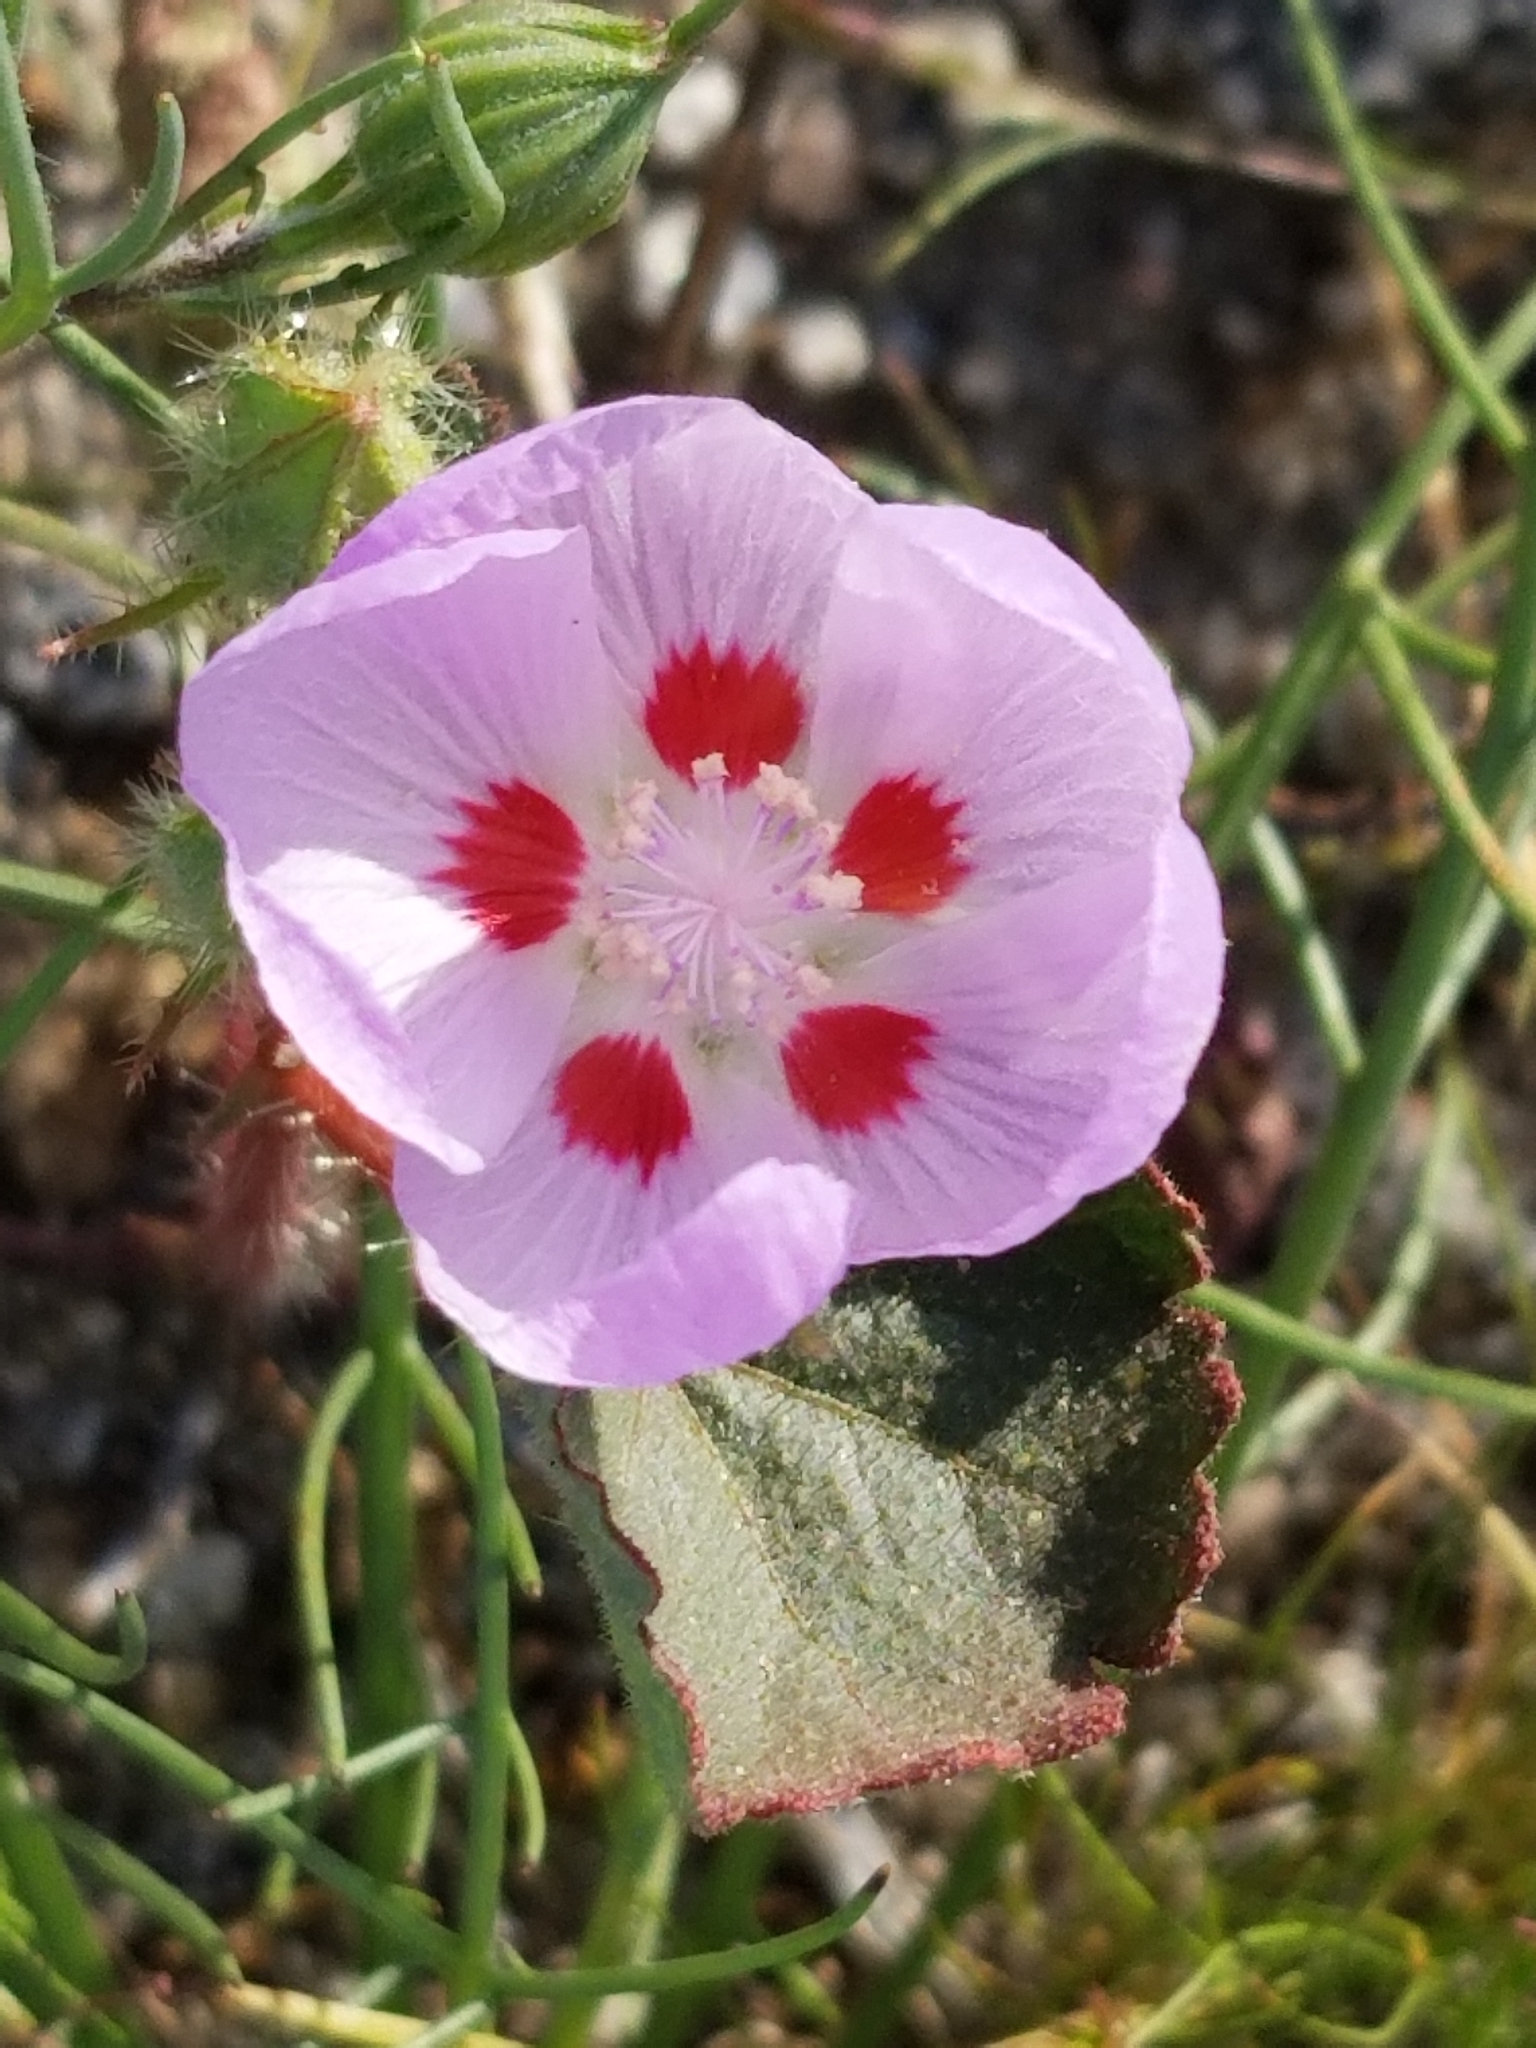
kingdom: Plantae
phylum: Tracheophyta
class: Magnoliopsida
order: Malvales
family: Malvaceae
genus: Eremalche
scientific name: Eremalche rotundifolia
